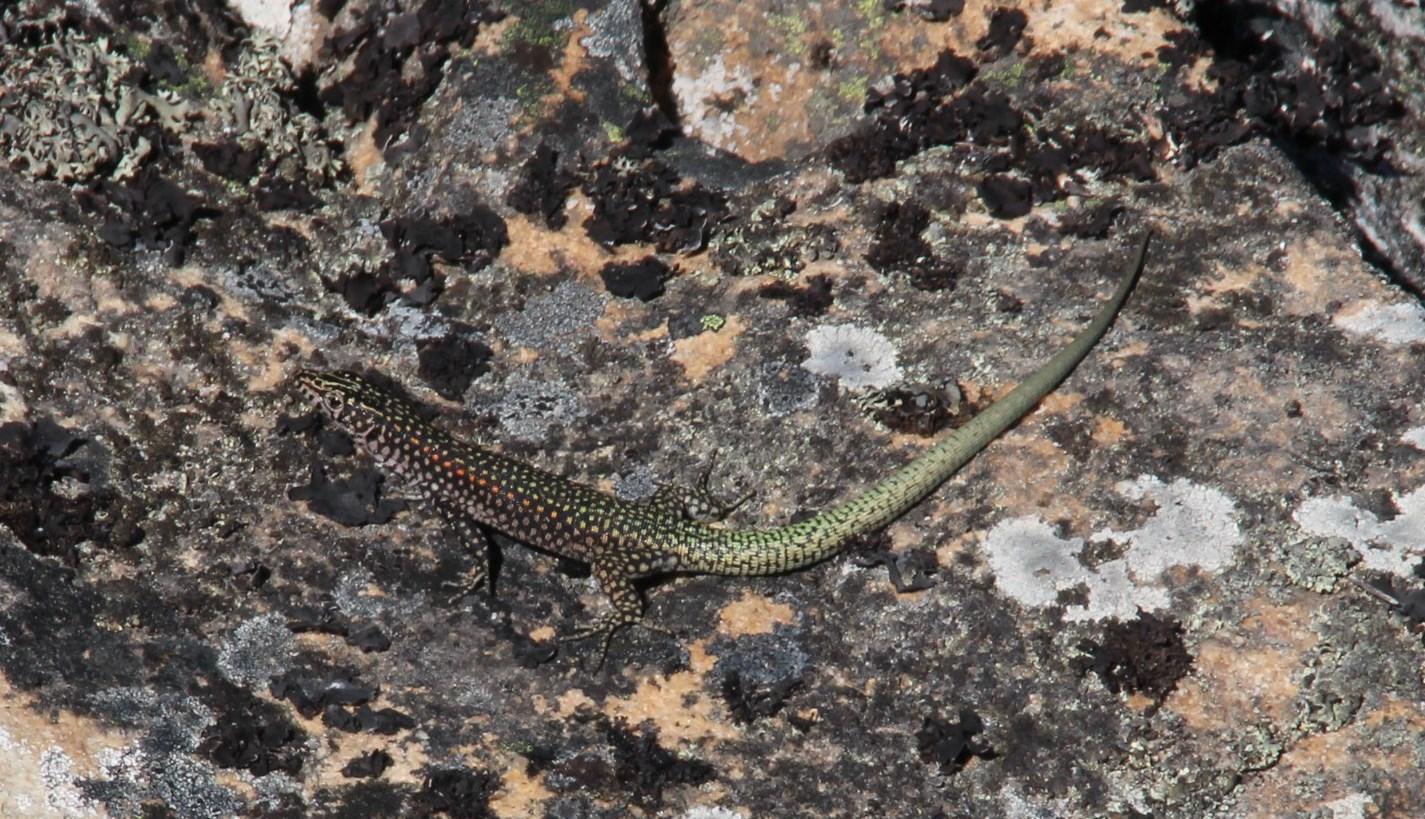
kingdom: Animalia
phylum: Chordata
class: Squamata
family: Lacertidae
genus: Australolacerta
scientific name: Australolacerta australis
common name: Southern rock lizard
